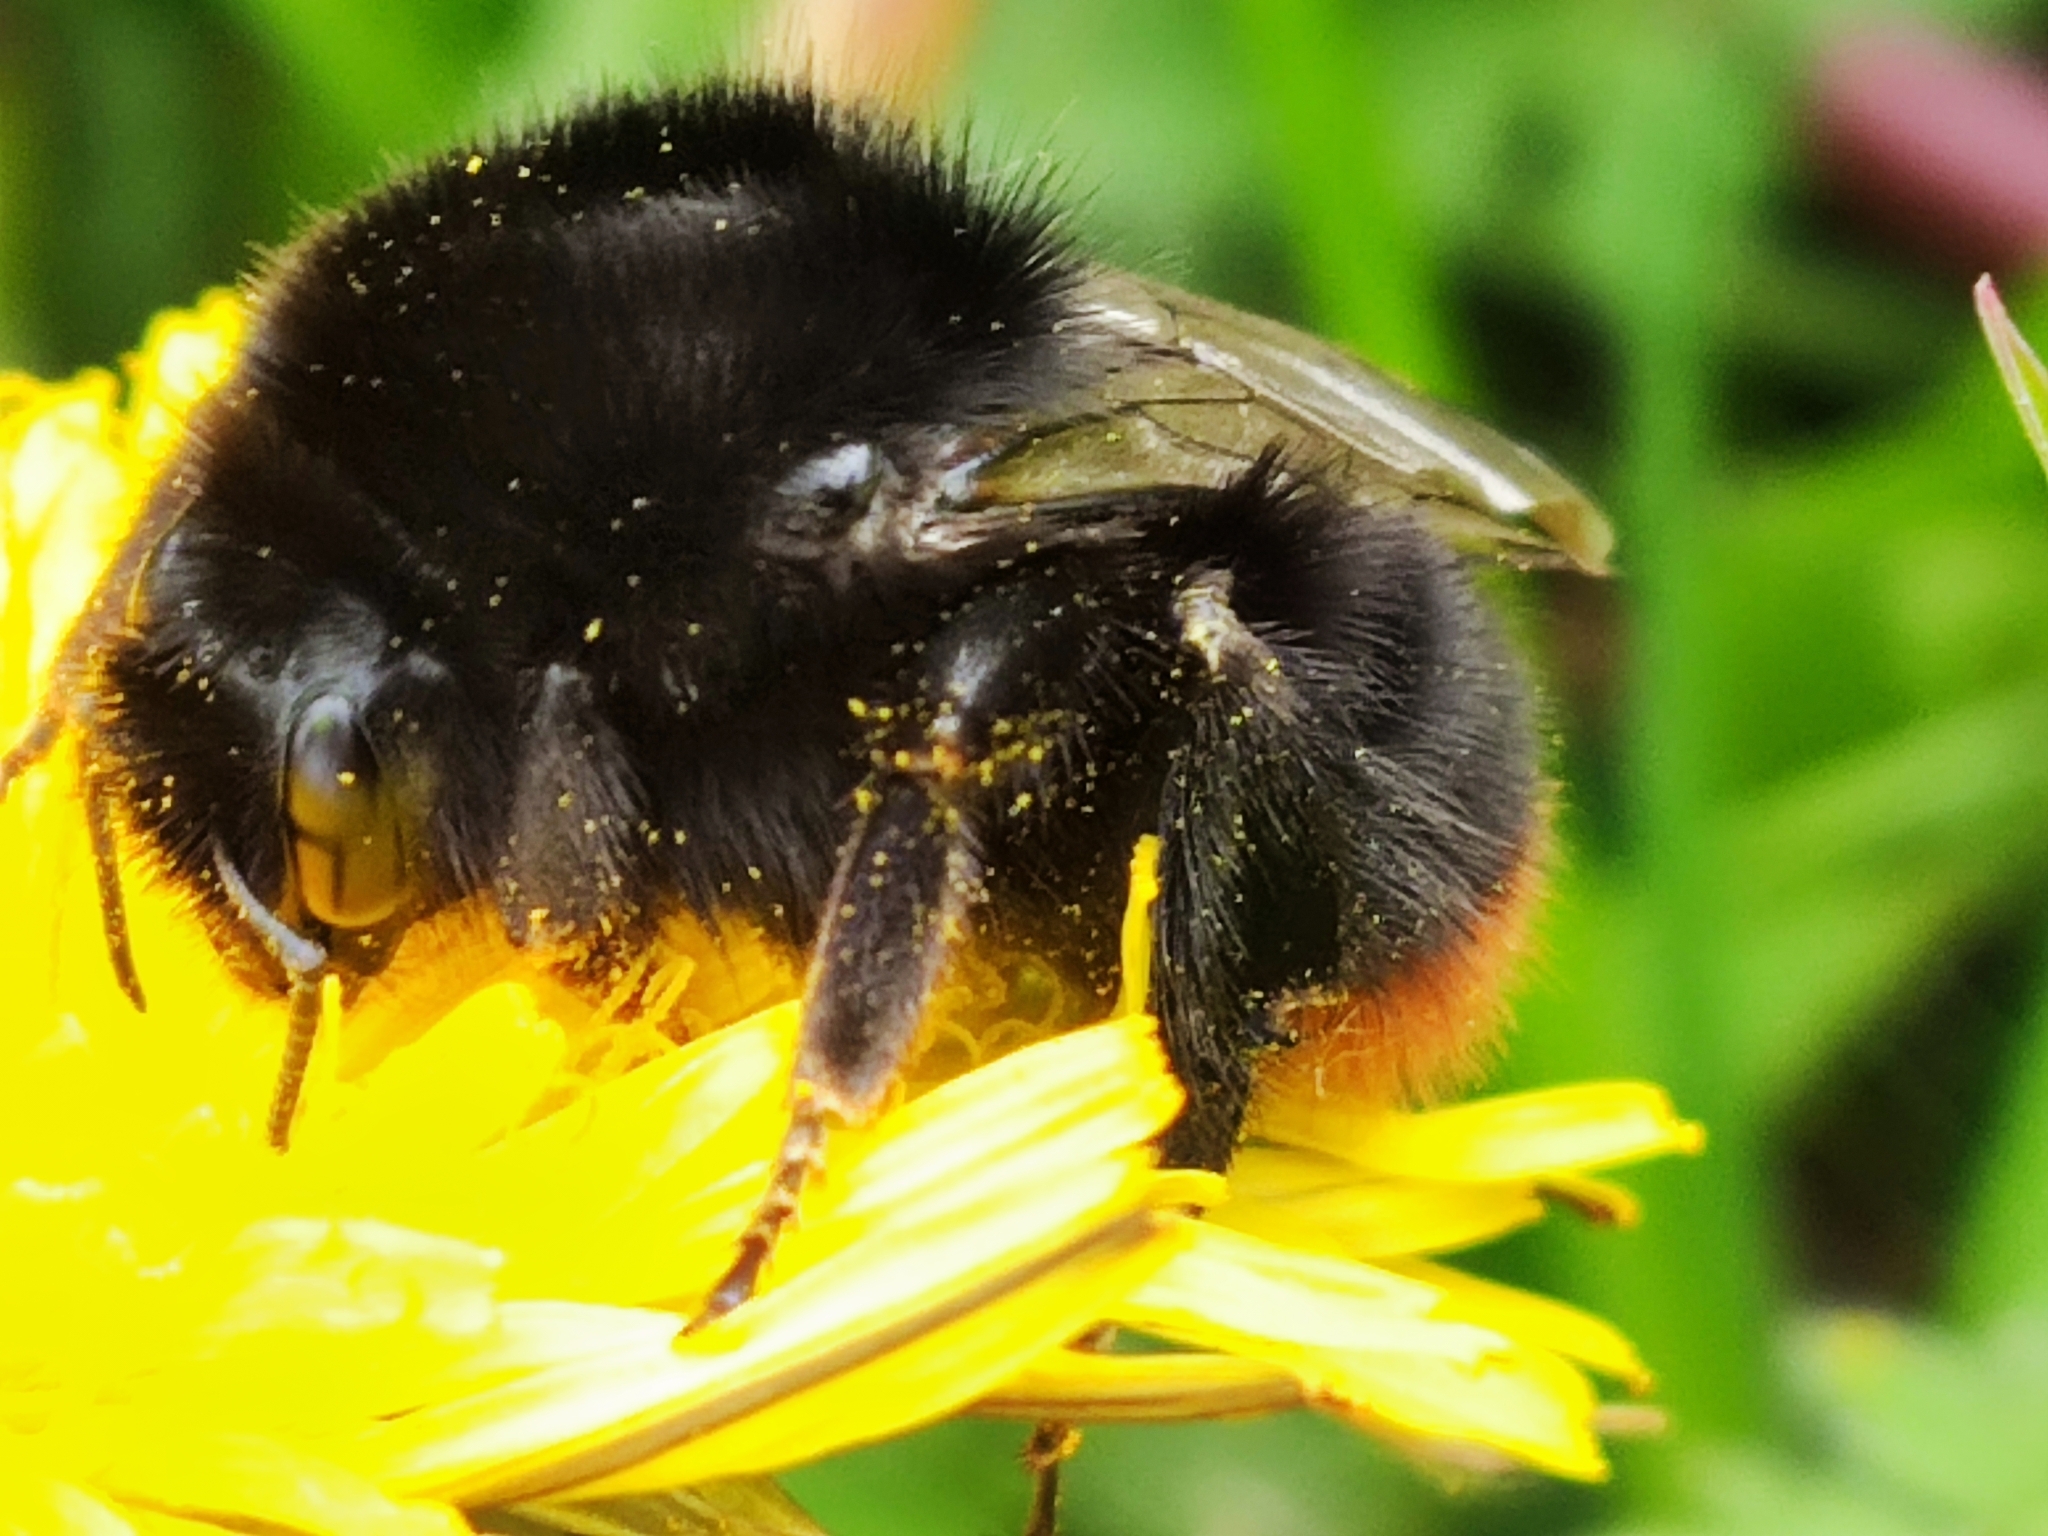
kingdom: Animalia
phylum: Arthropoda
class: Insecta
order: Hymenoptera
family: Apidae
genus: Bombus
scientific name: Bombus lapidarius
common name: Large red-tailed humble-bee
